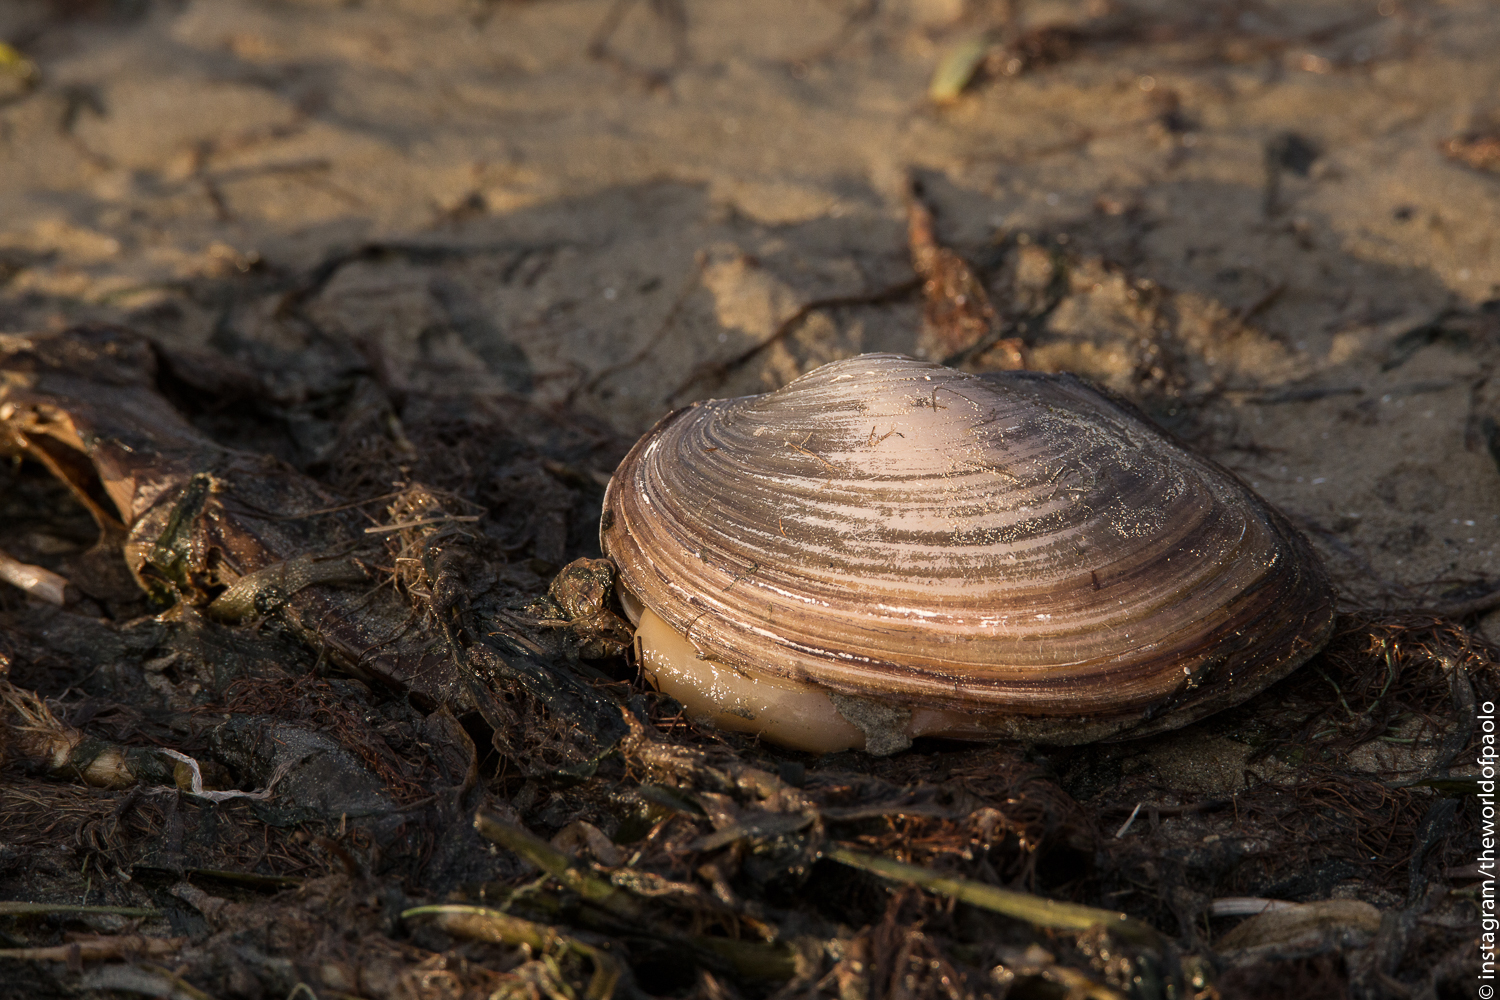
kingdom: Animalia
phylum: Mollusca
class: Bivalvia
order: Unionida
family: Unionidae
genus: Sinanodonta
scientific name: Sinanodonta woodiana
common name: Chinese pond mussel
